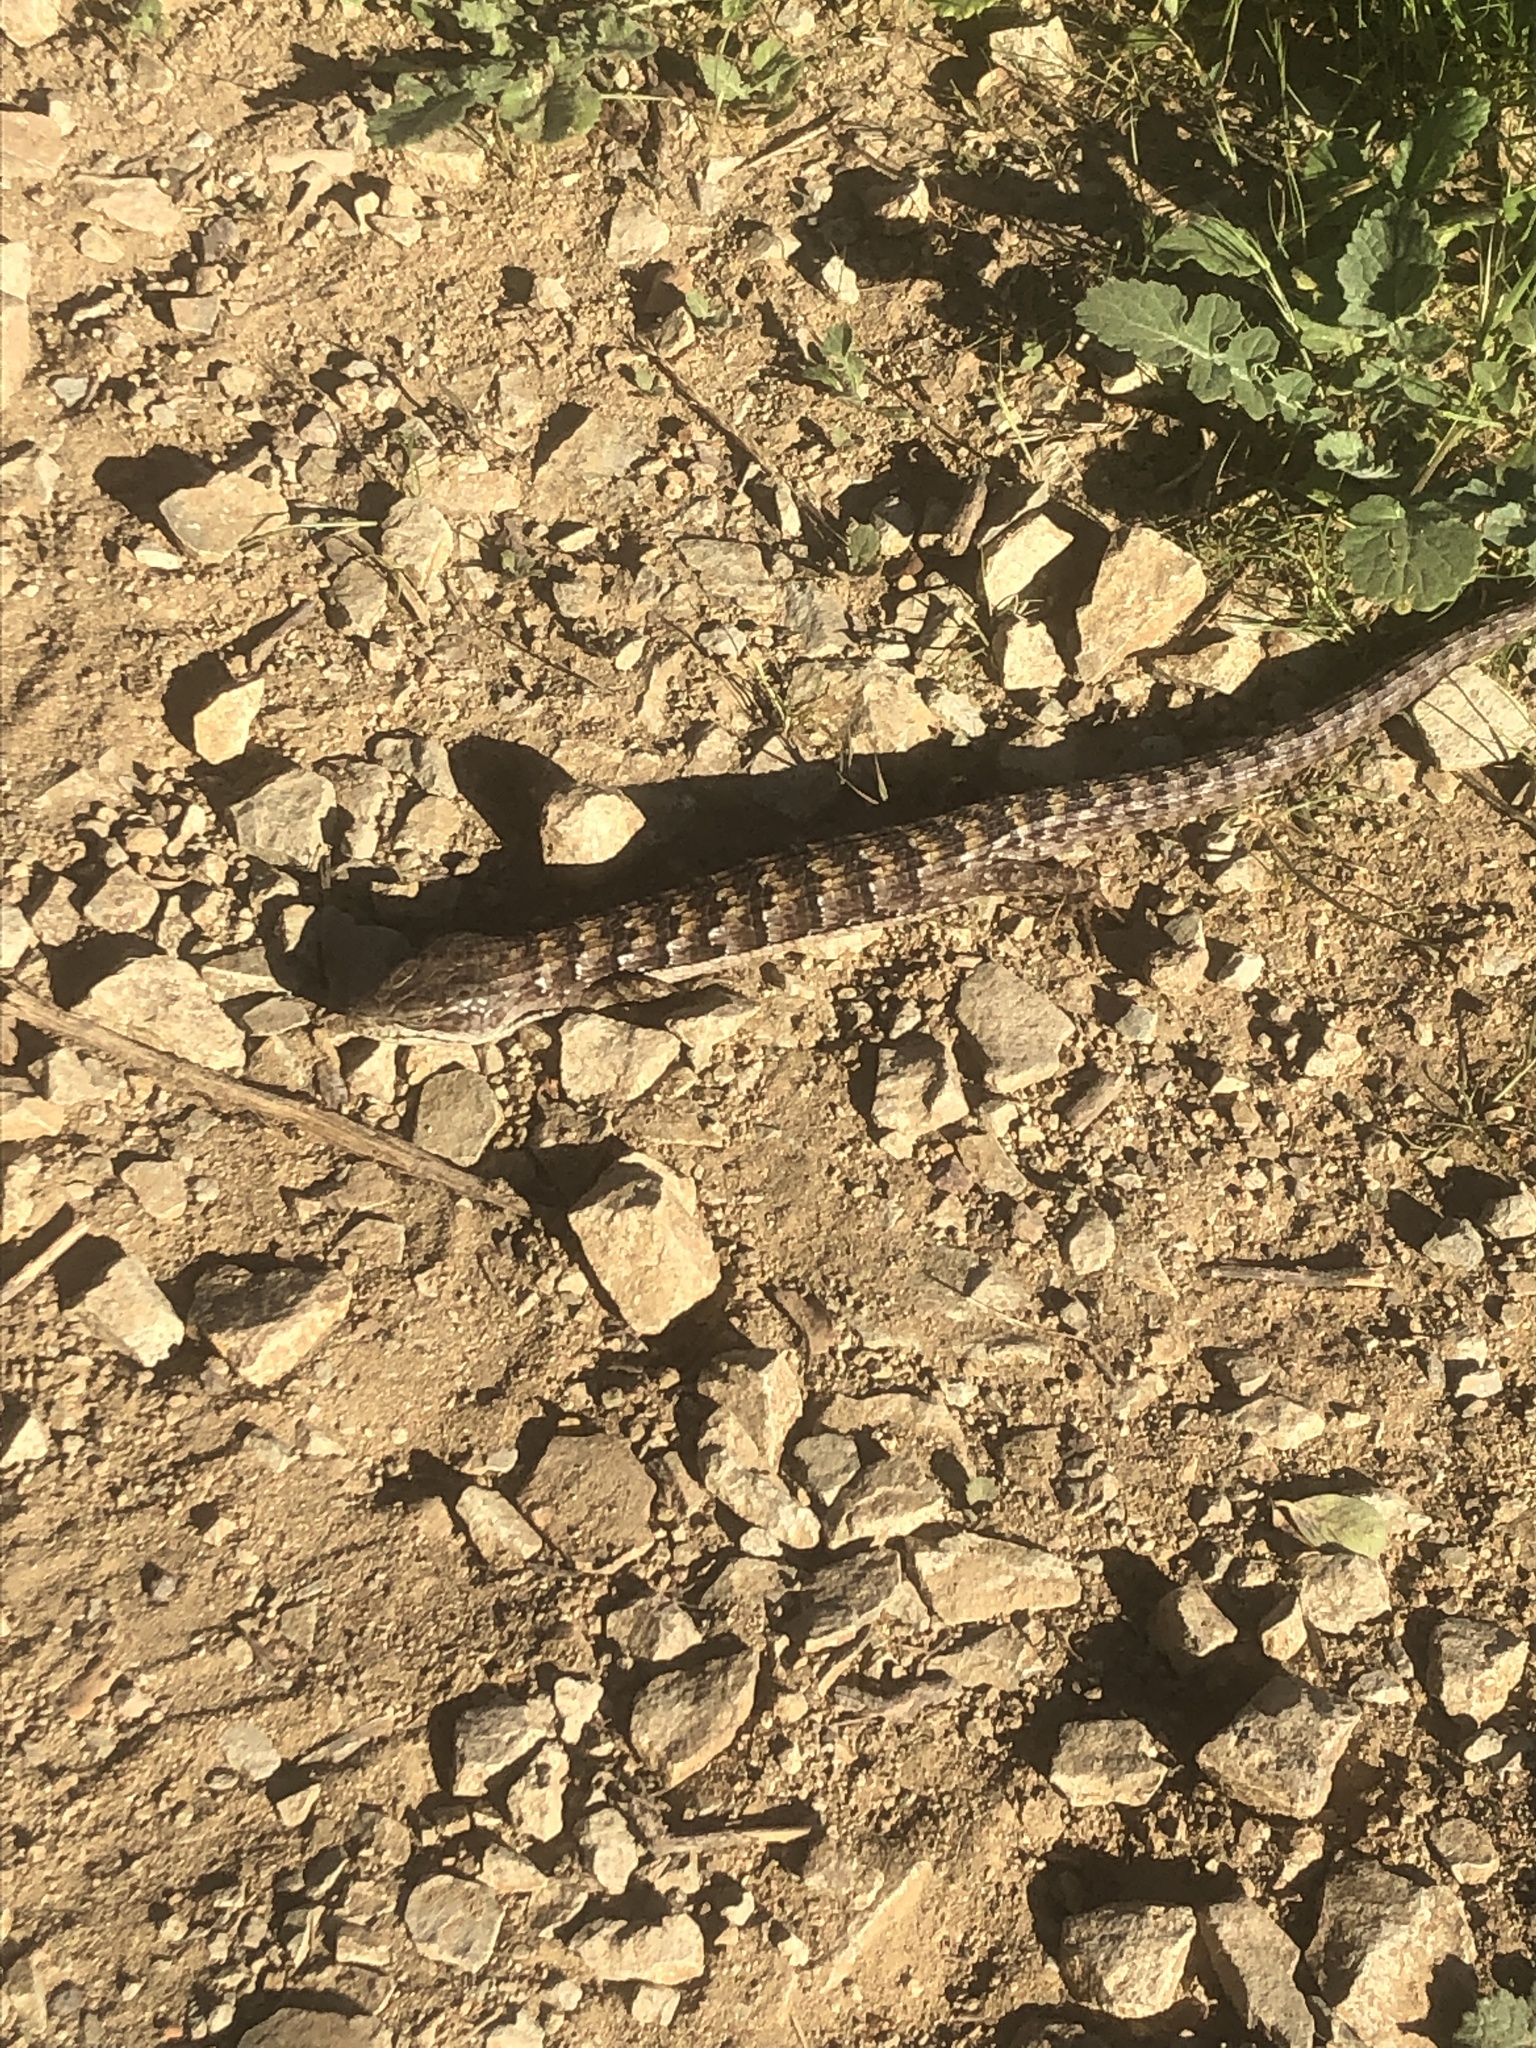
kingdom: Animalia
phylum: Chordata
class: Squamata
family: Anguidae
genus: Elgaria
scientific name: Elgaria multicarinata
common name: Southern alligator lizard
